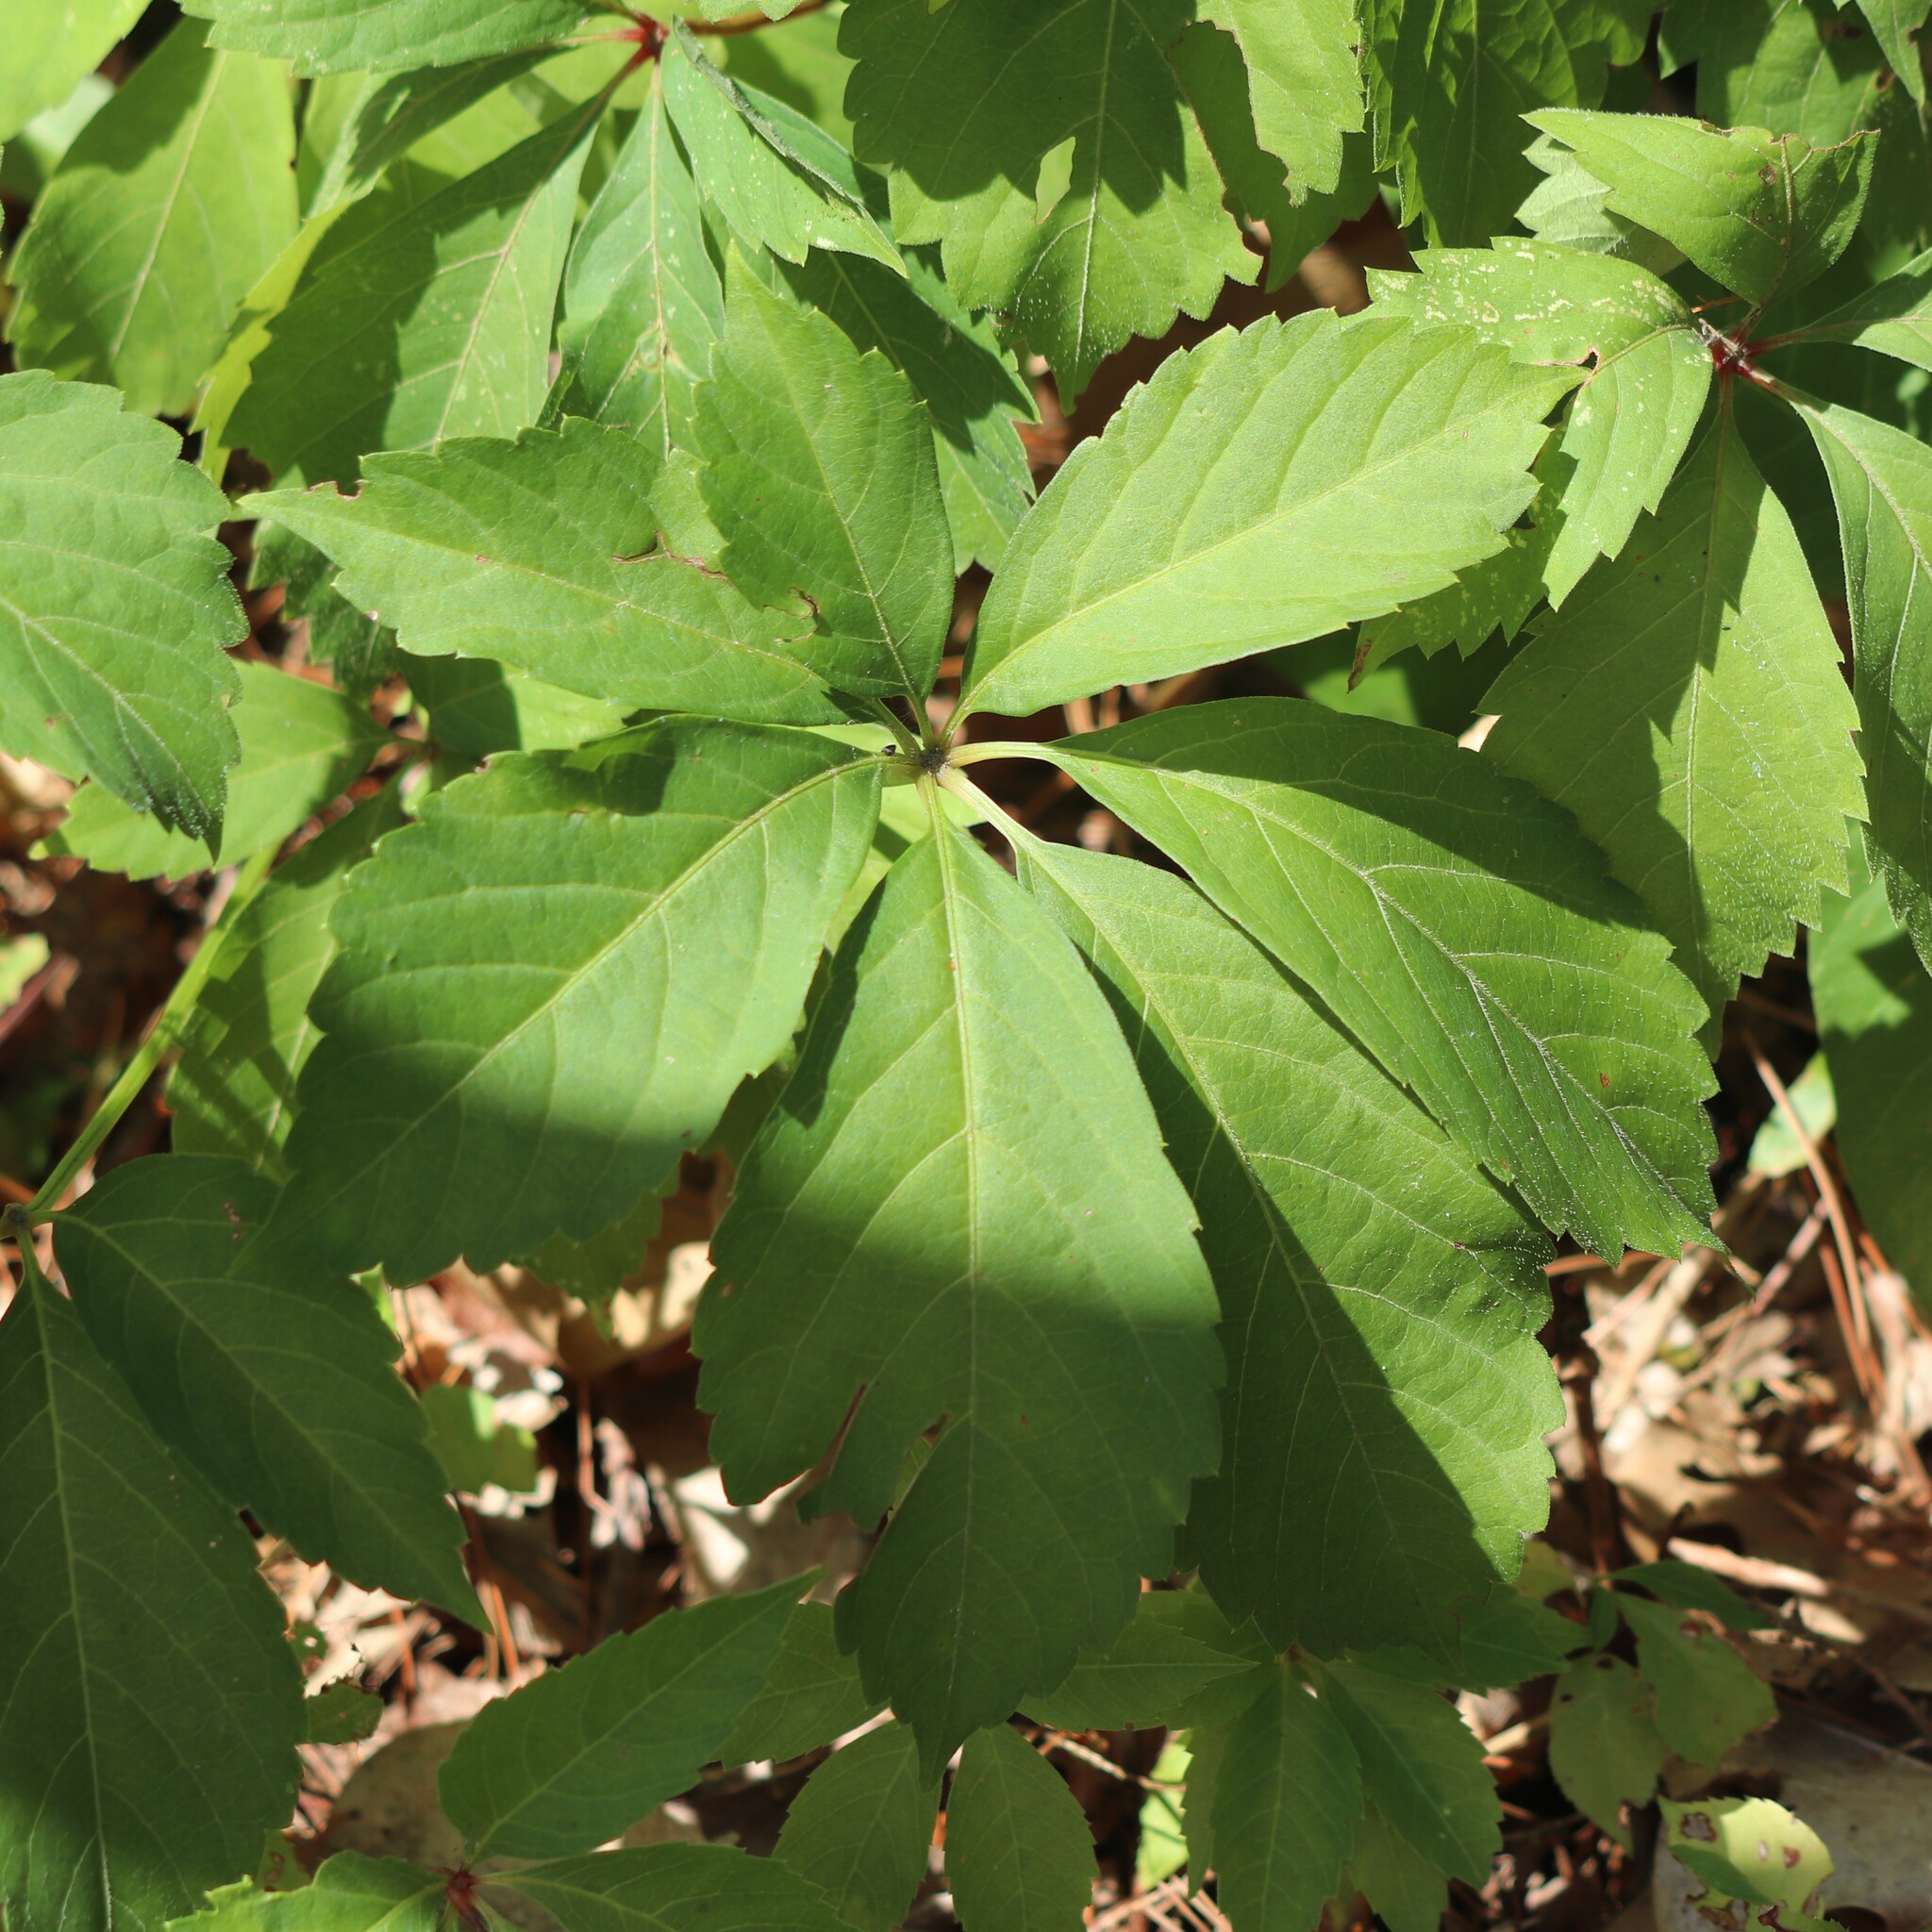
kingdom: Plantae
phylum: Tracheophyta
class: Magnoliopsida
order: Vitales
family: Vitaceae
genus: Parthenocissus
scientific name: Parthenocissus quinquefolia
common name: Virginia-creeper
